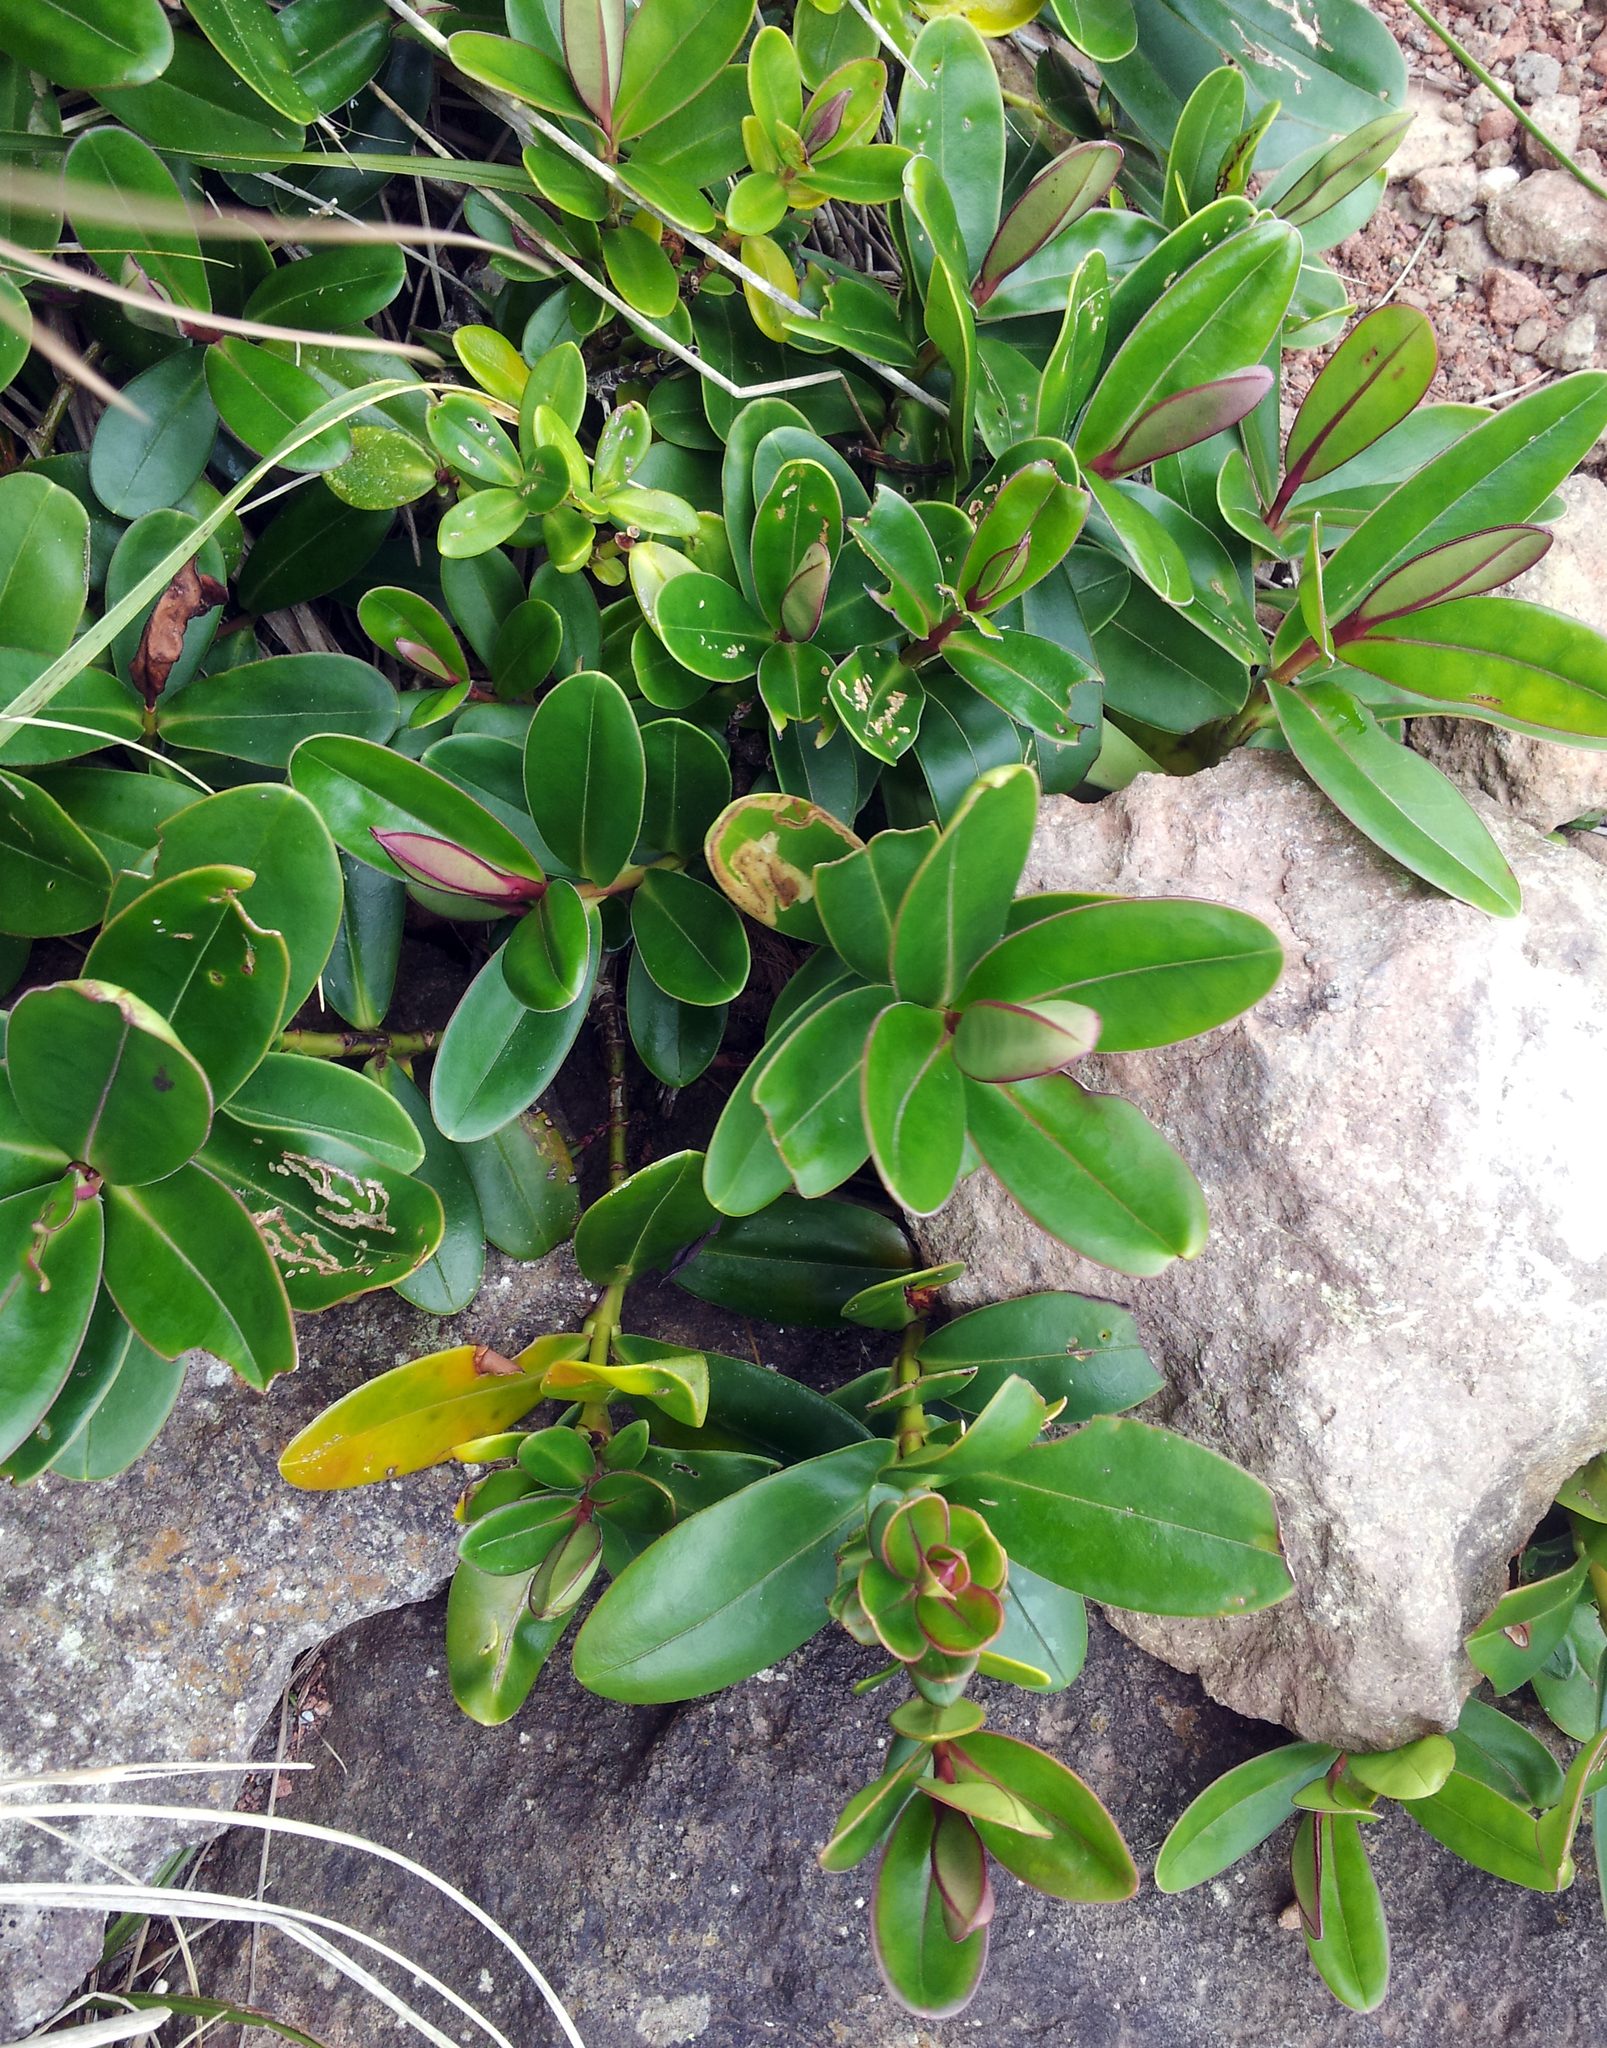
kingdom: Plantae
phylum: Tracheophyta
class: Magnoliopsida
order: Lamiales
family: Plantaginaceae
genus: Veronica
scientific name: Veronica speciosa
